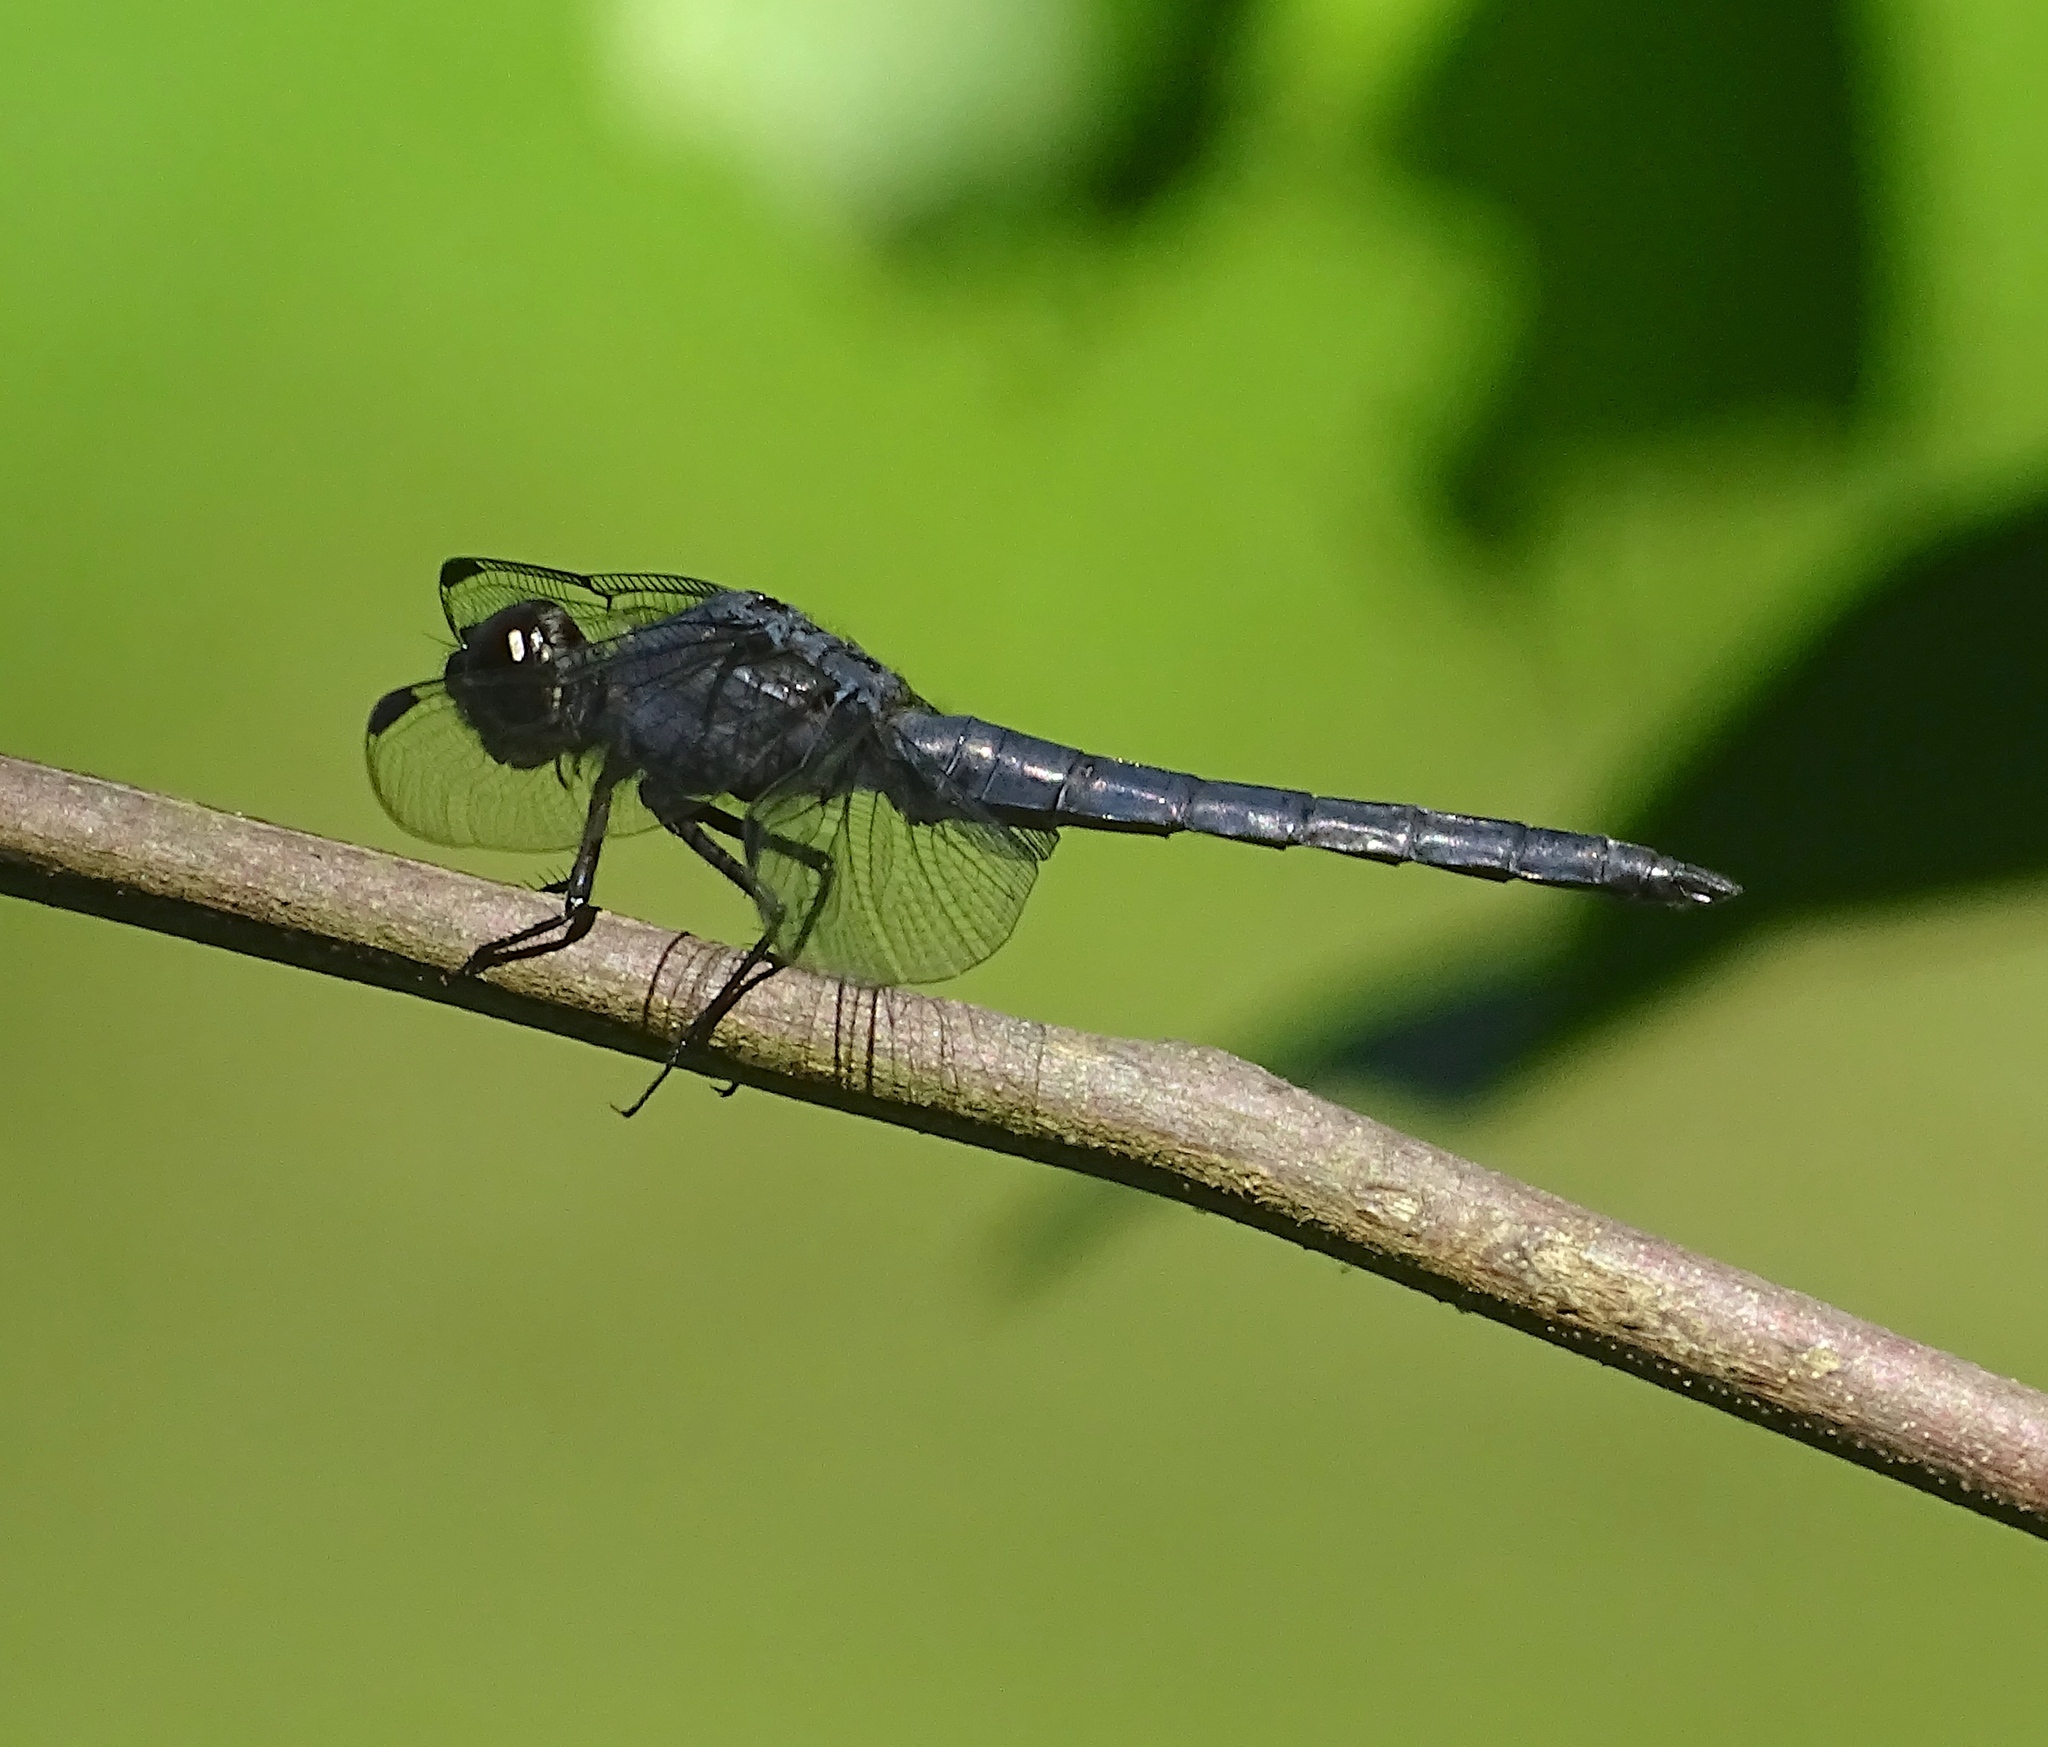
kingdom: Animalia
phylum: Arthropoda
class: Insecta
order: Odonata
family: Libellulidae
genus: Libellula
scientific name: Libellula incesta
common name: Slaty skimmer
